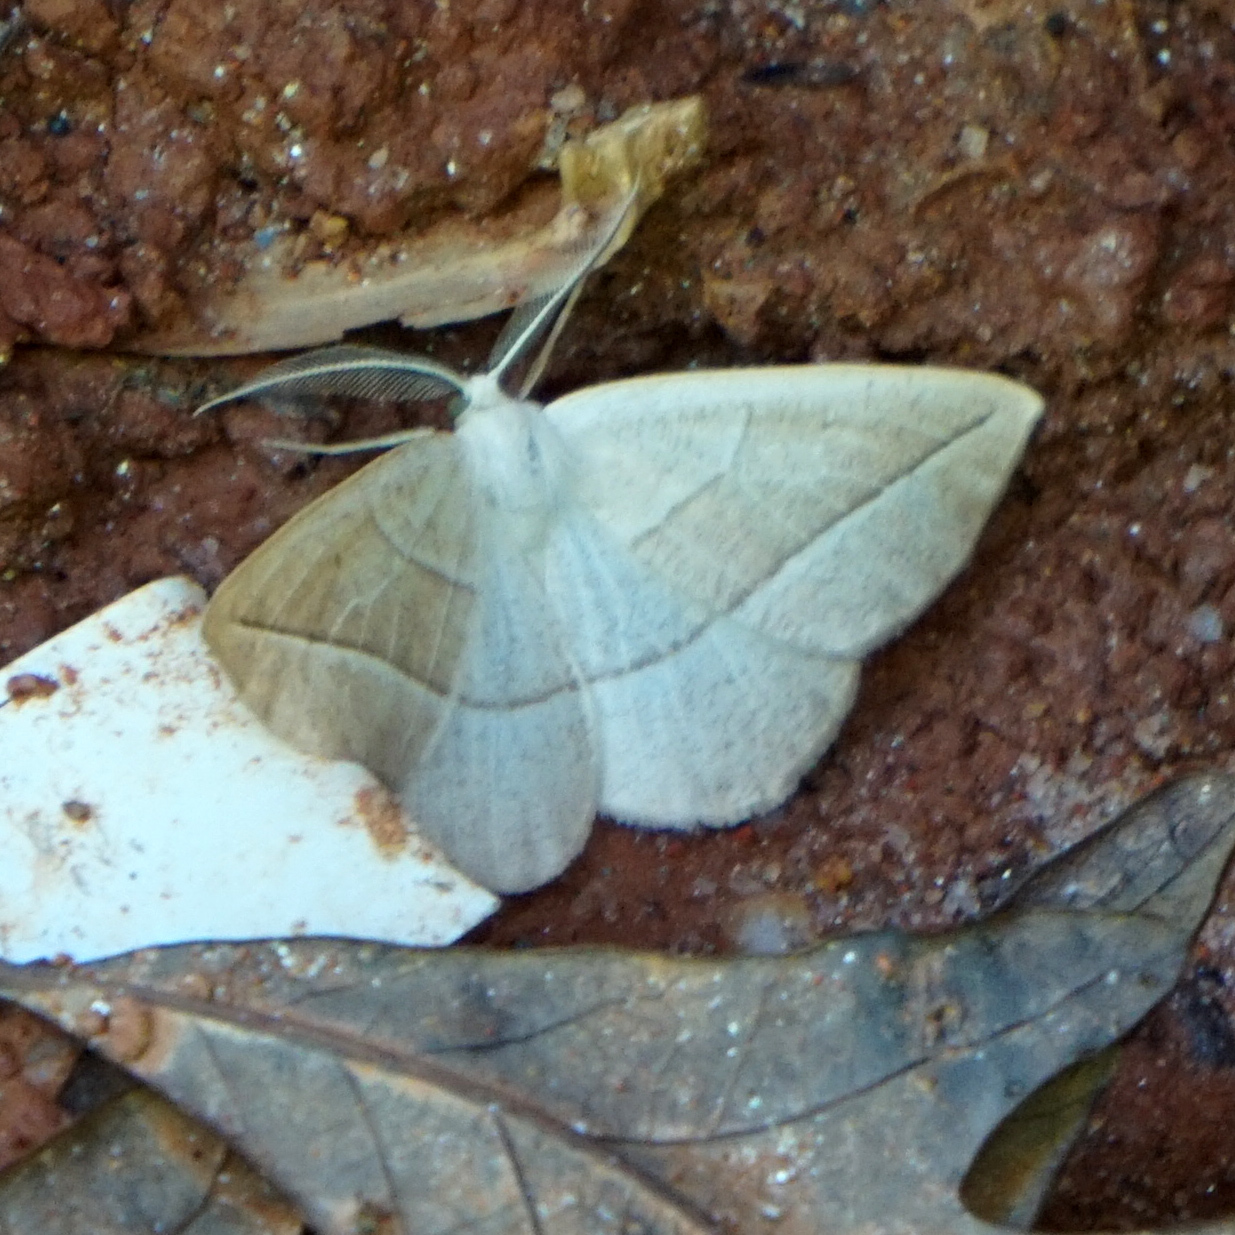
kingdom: Animalia
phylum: Arthropoda
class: Insecta
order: Lepidoptera
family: Geometridae
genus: Eusarca
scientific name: Eusarca confusaria
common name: Confused eusarca
